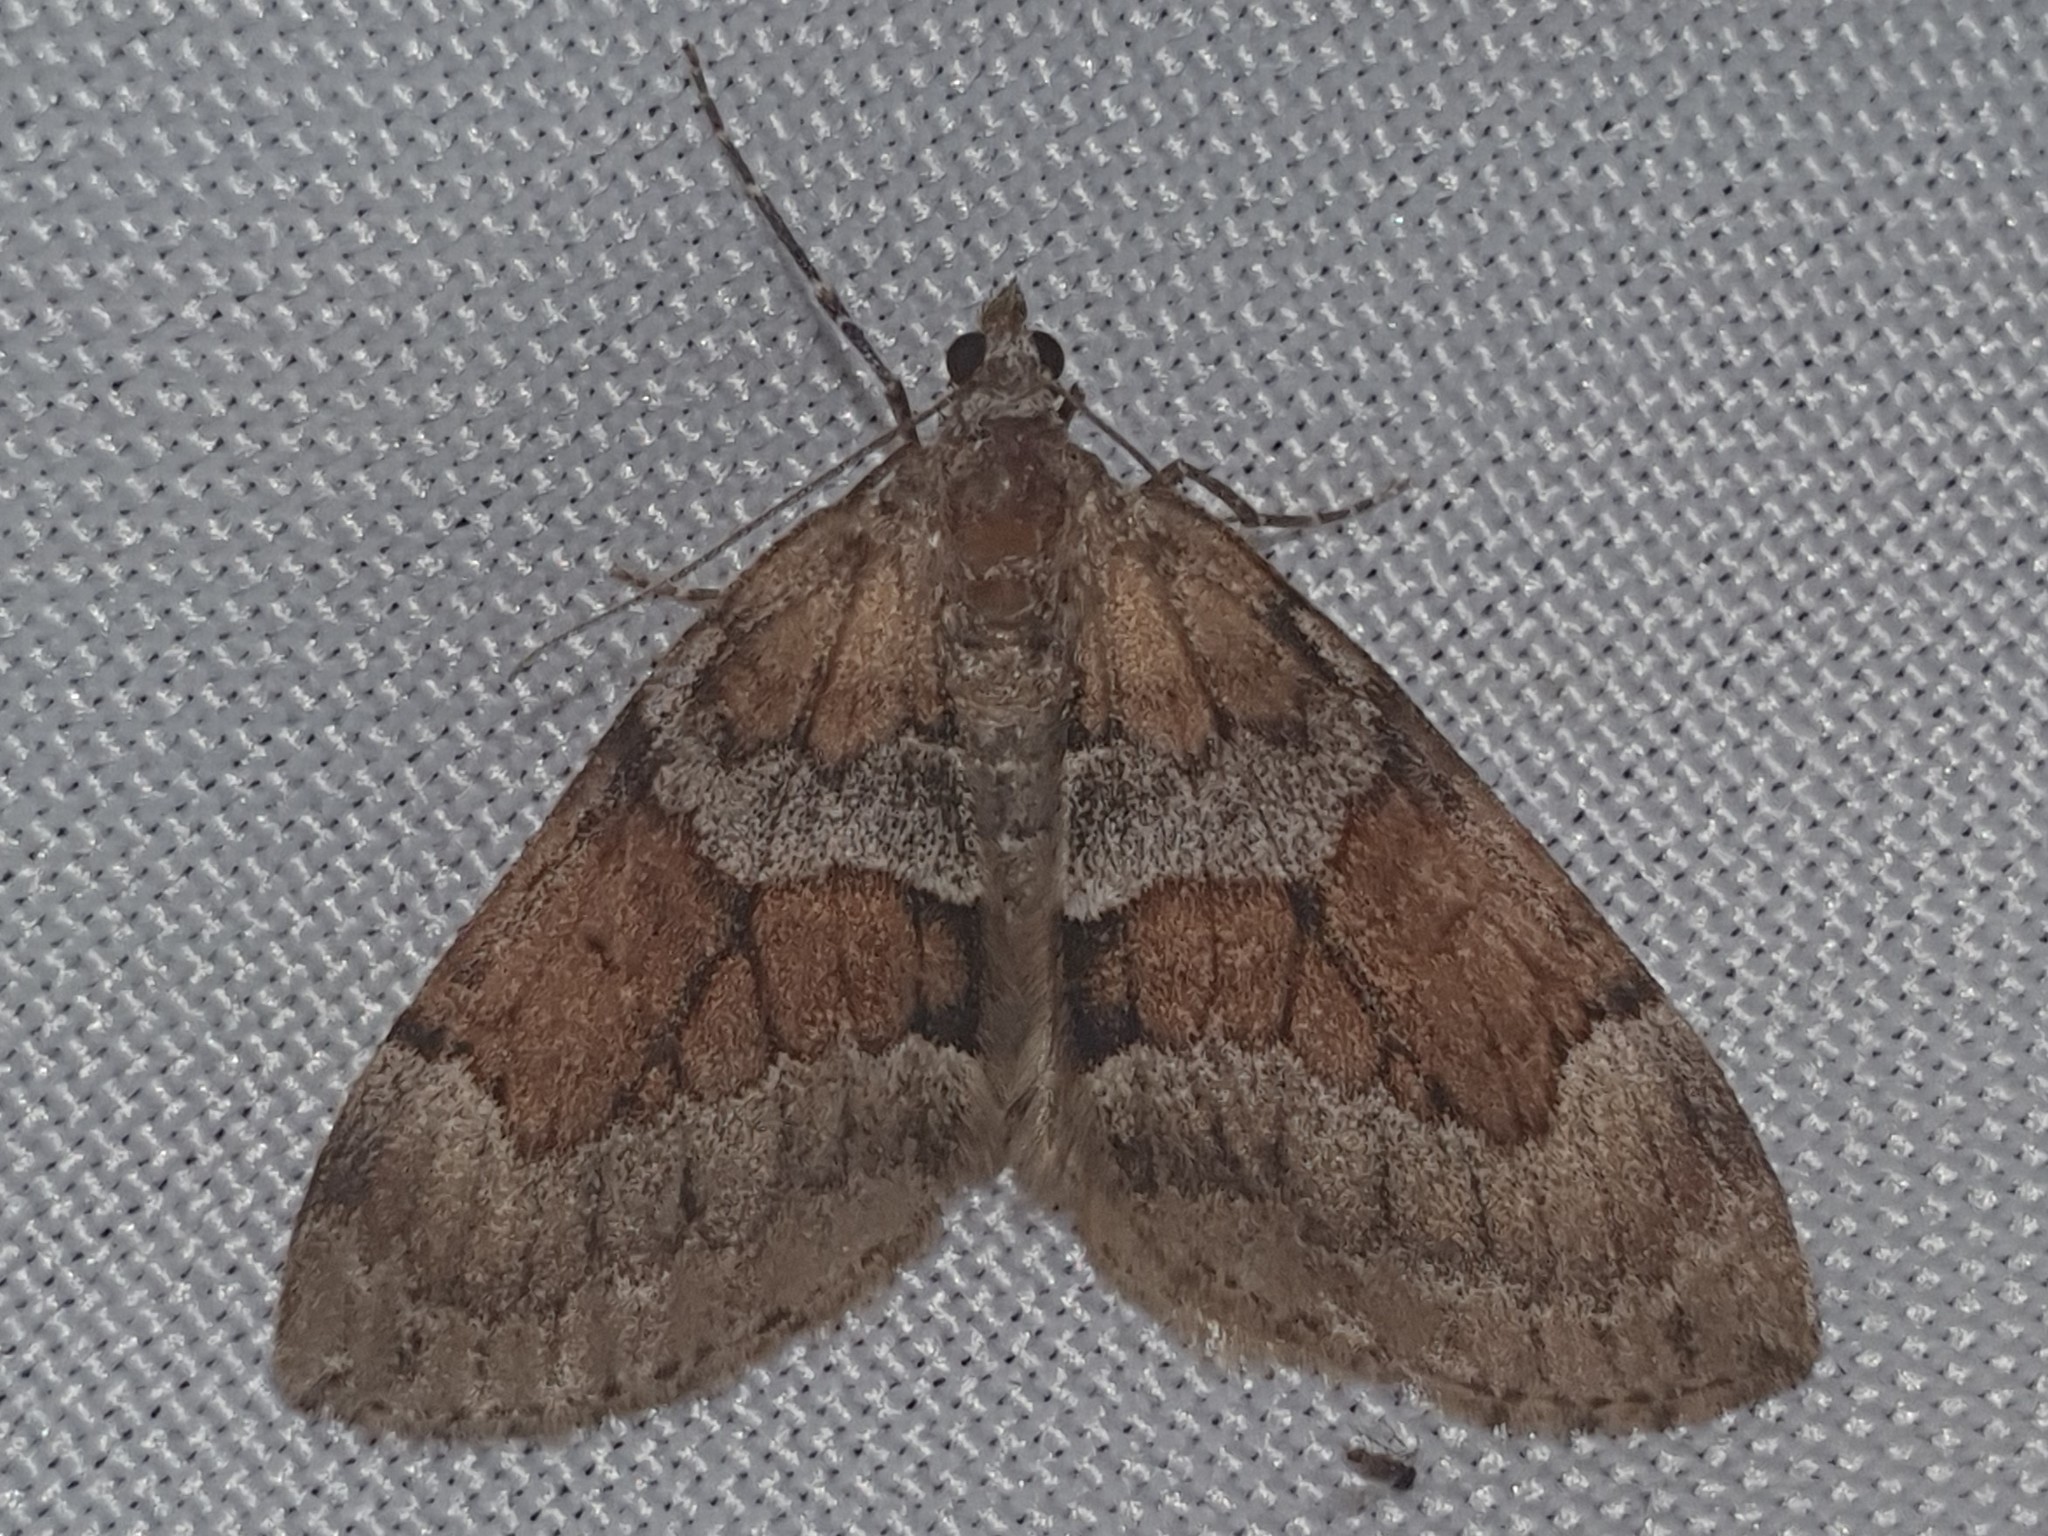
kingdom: Animalia
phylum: Arthropoda
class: Insecta
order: Lepidoptera
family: Geometridae
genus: Thera
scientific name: Thera obeliscata
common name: Grey pine carpet
